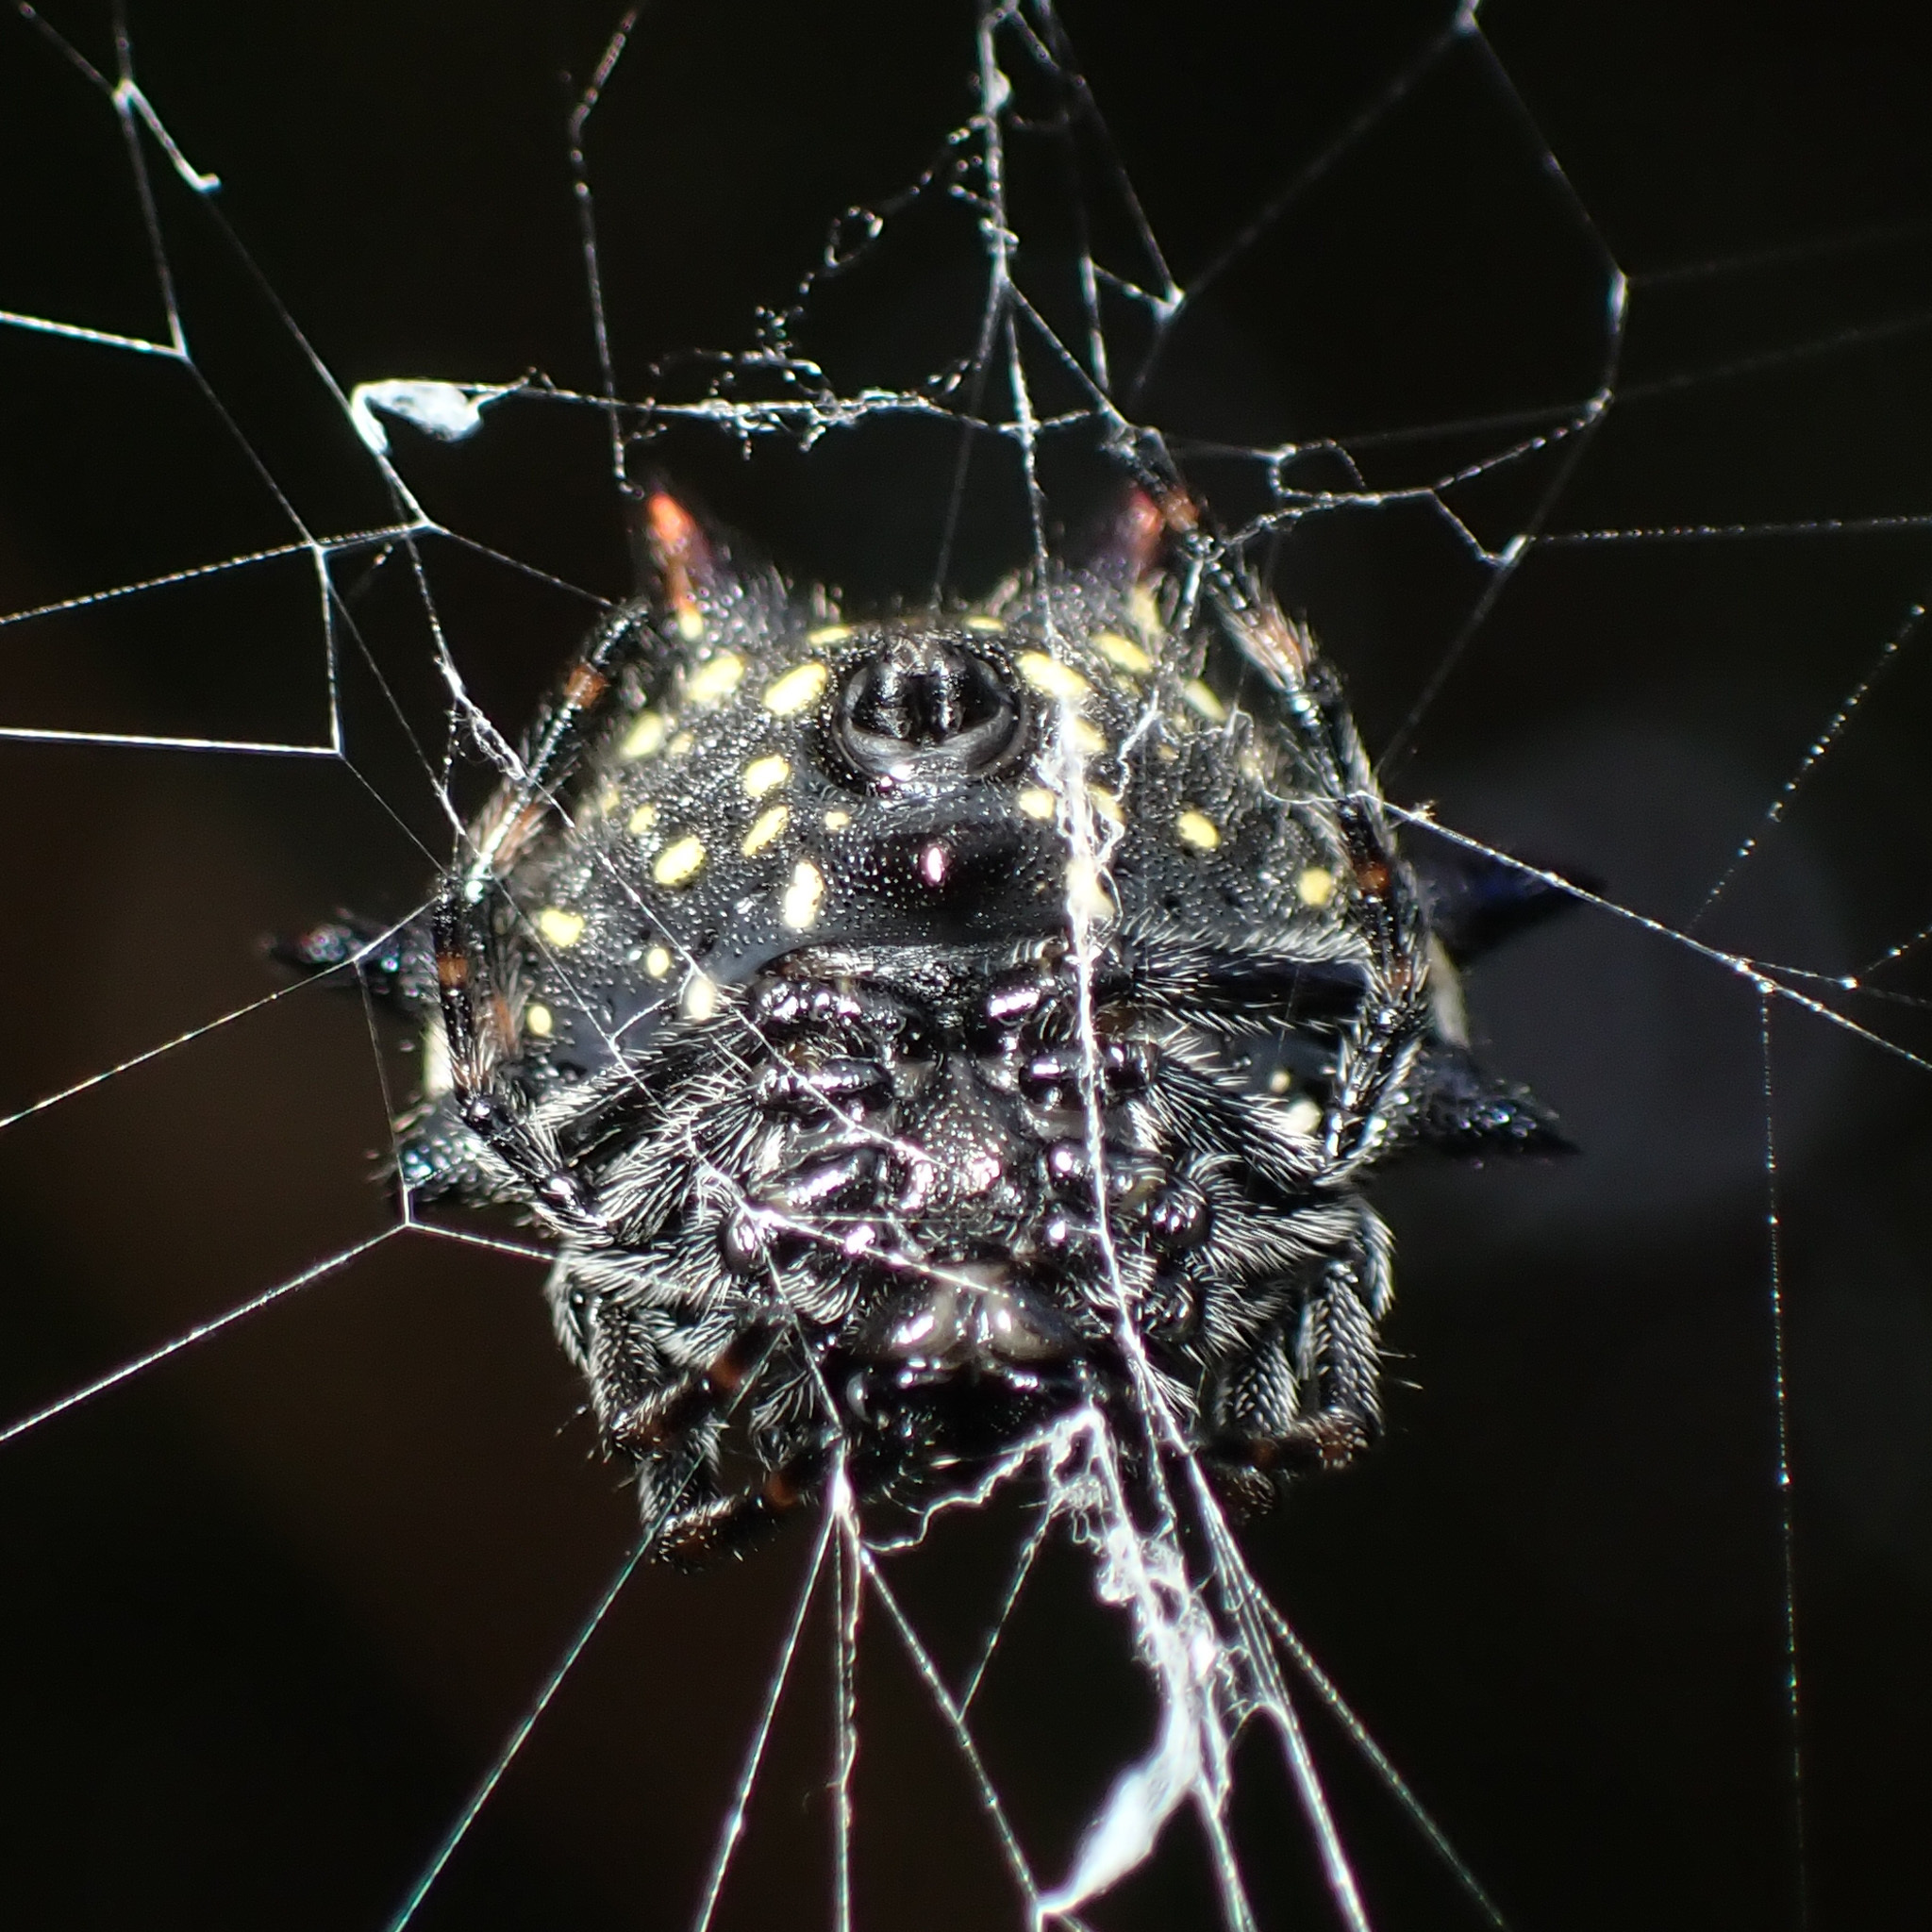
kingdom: Animalia
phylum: Arthropoda
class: Arachnida
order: Araneae
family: Araneidae
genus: Gasteracantha
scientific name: Gasteracantha cancriformis
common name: Orb weavers
